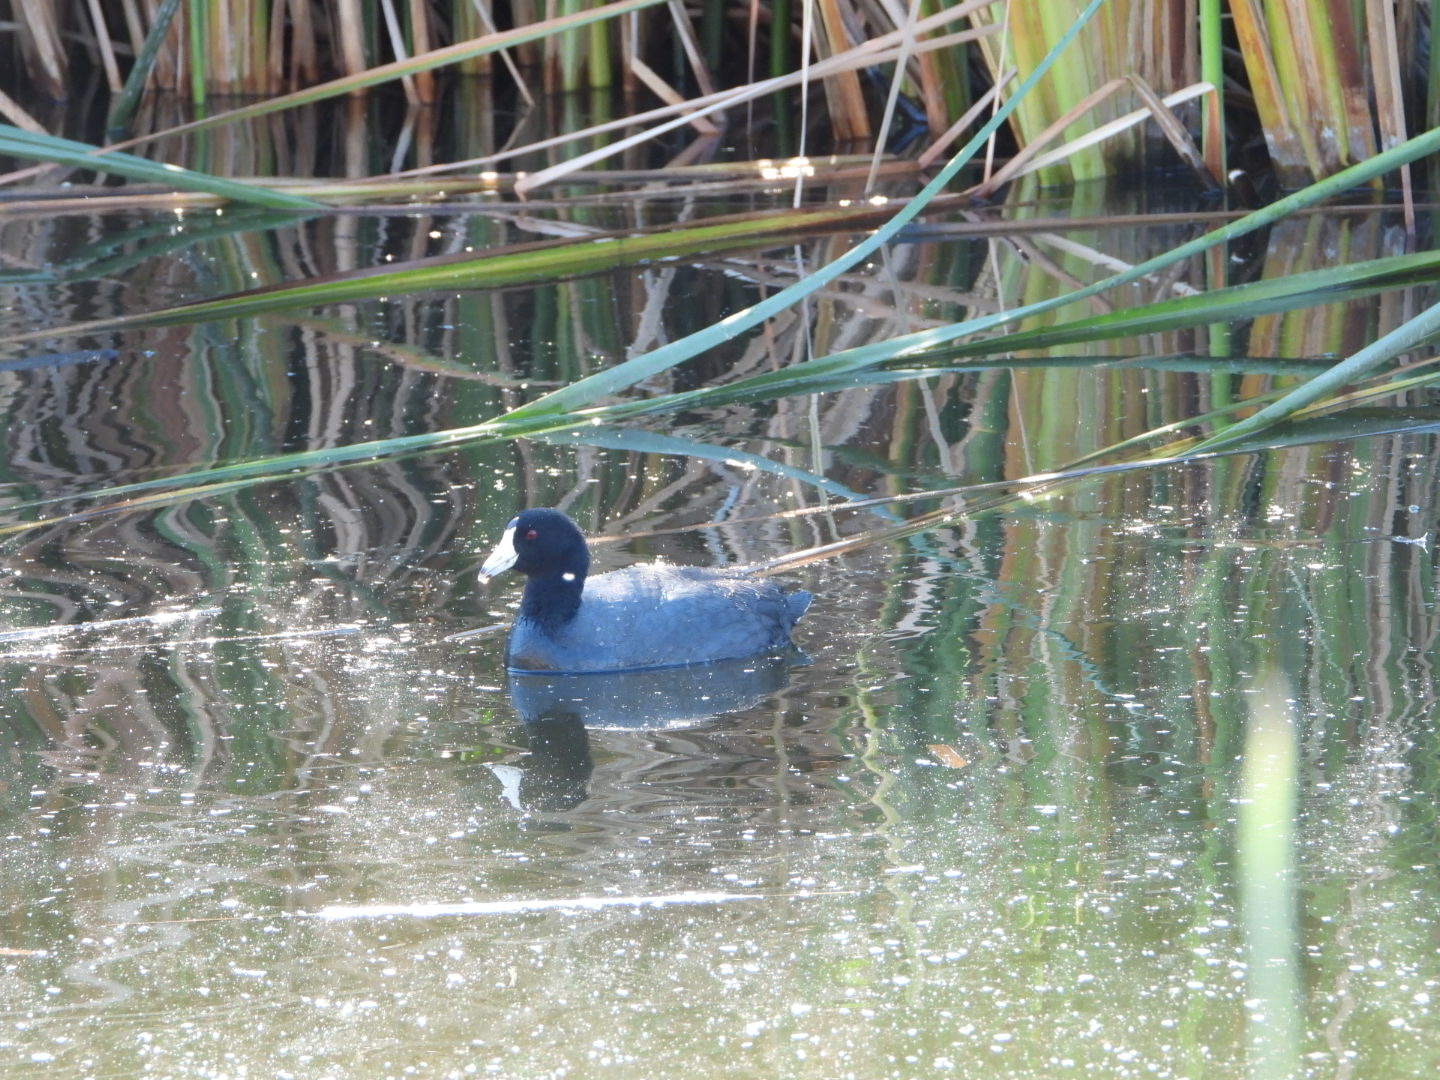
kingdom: Animalia
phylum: Chordata
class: Aves
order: Gruiformes
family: Rallidae
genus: Fulica
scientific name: Fulica americana
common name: American coot
